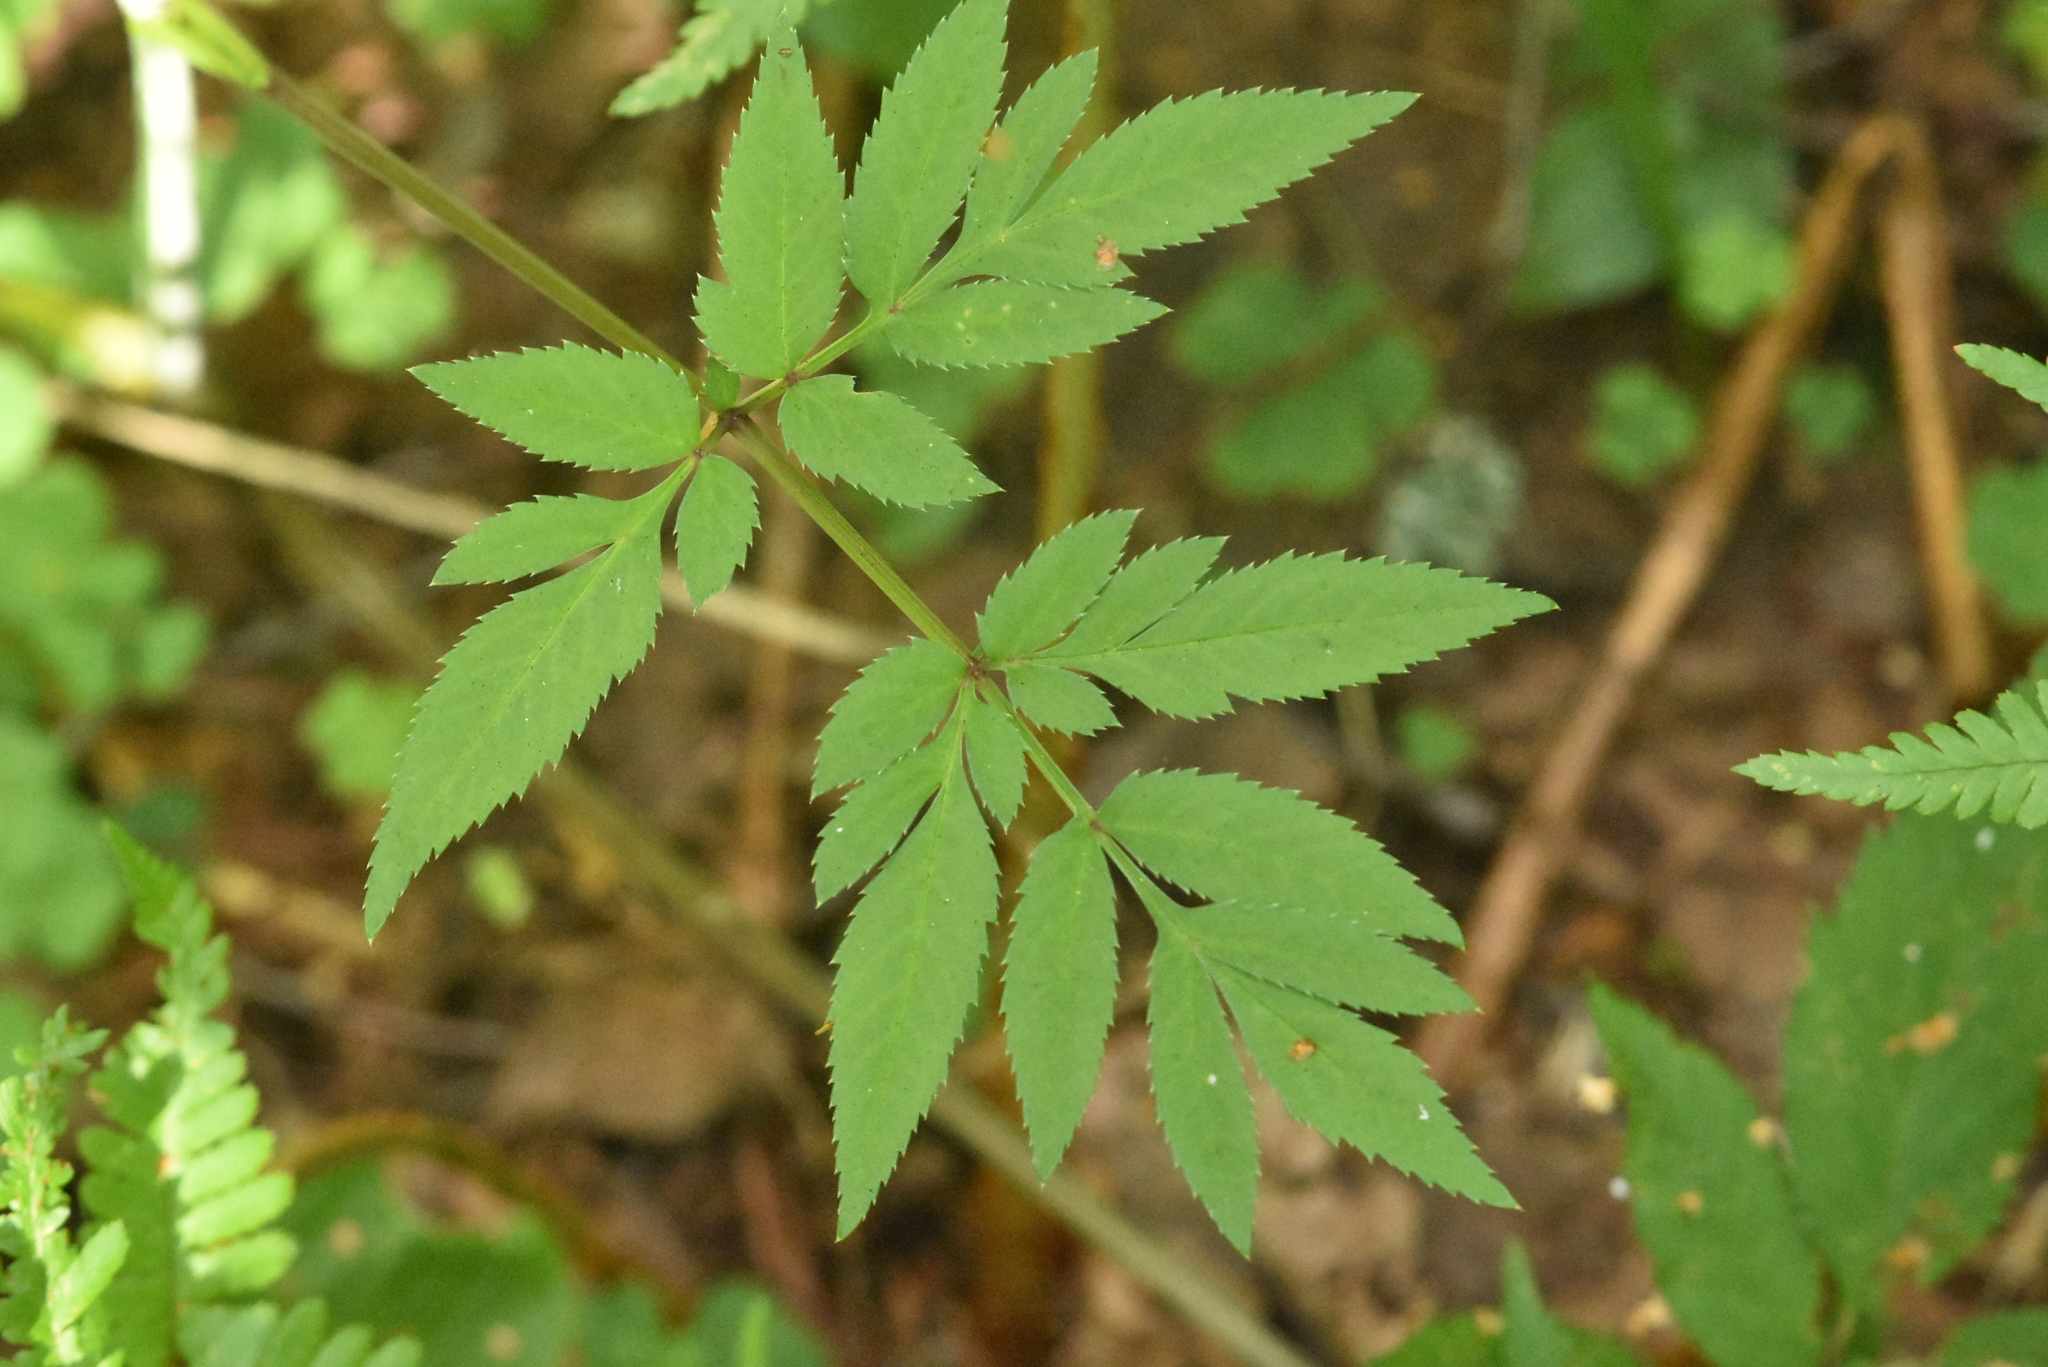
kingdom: Plantae
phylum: Tracheophyta
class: Magnoliopsida
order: Apiales
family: Apiaceae
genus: Angelica
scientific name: Angelica sylvestris
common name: Wild angelica
